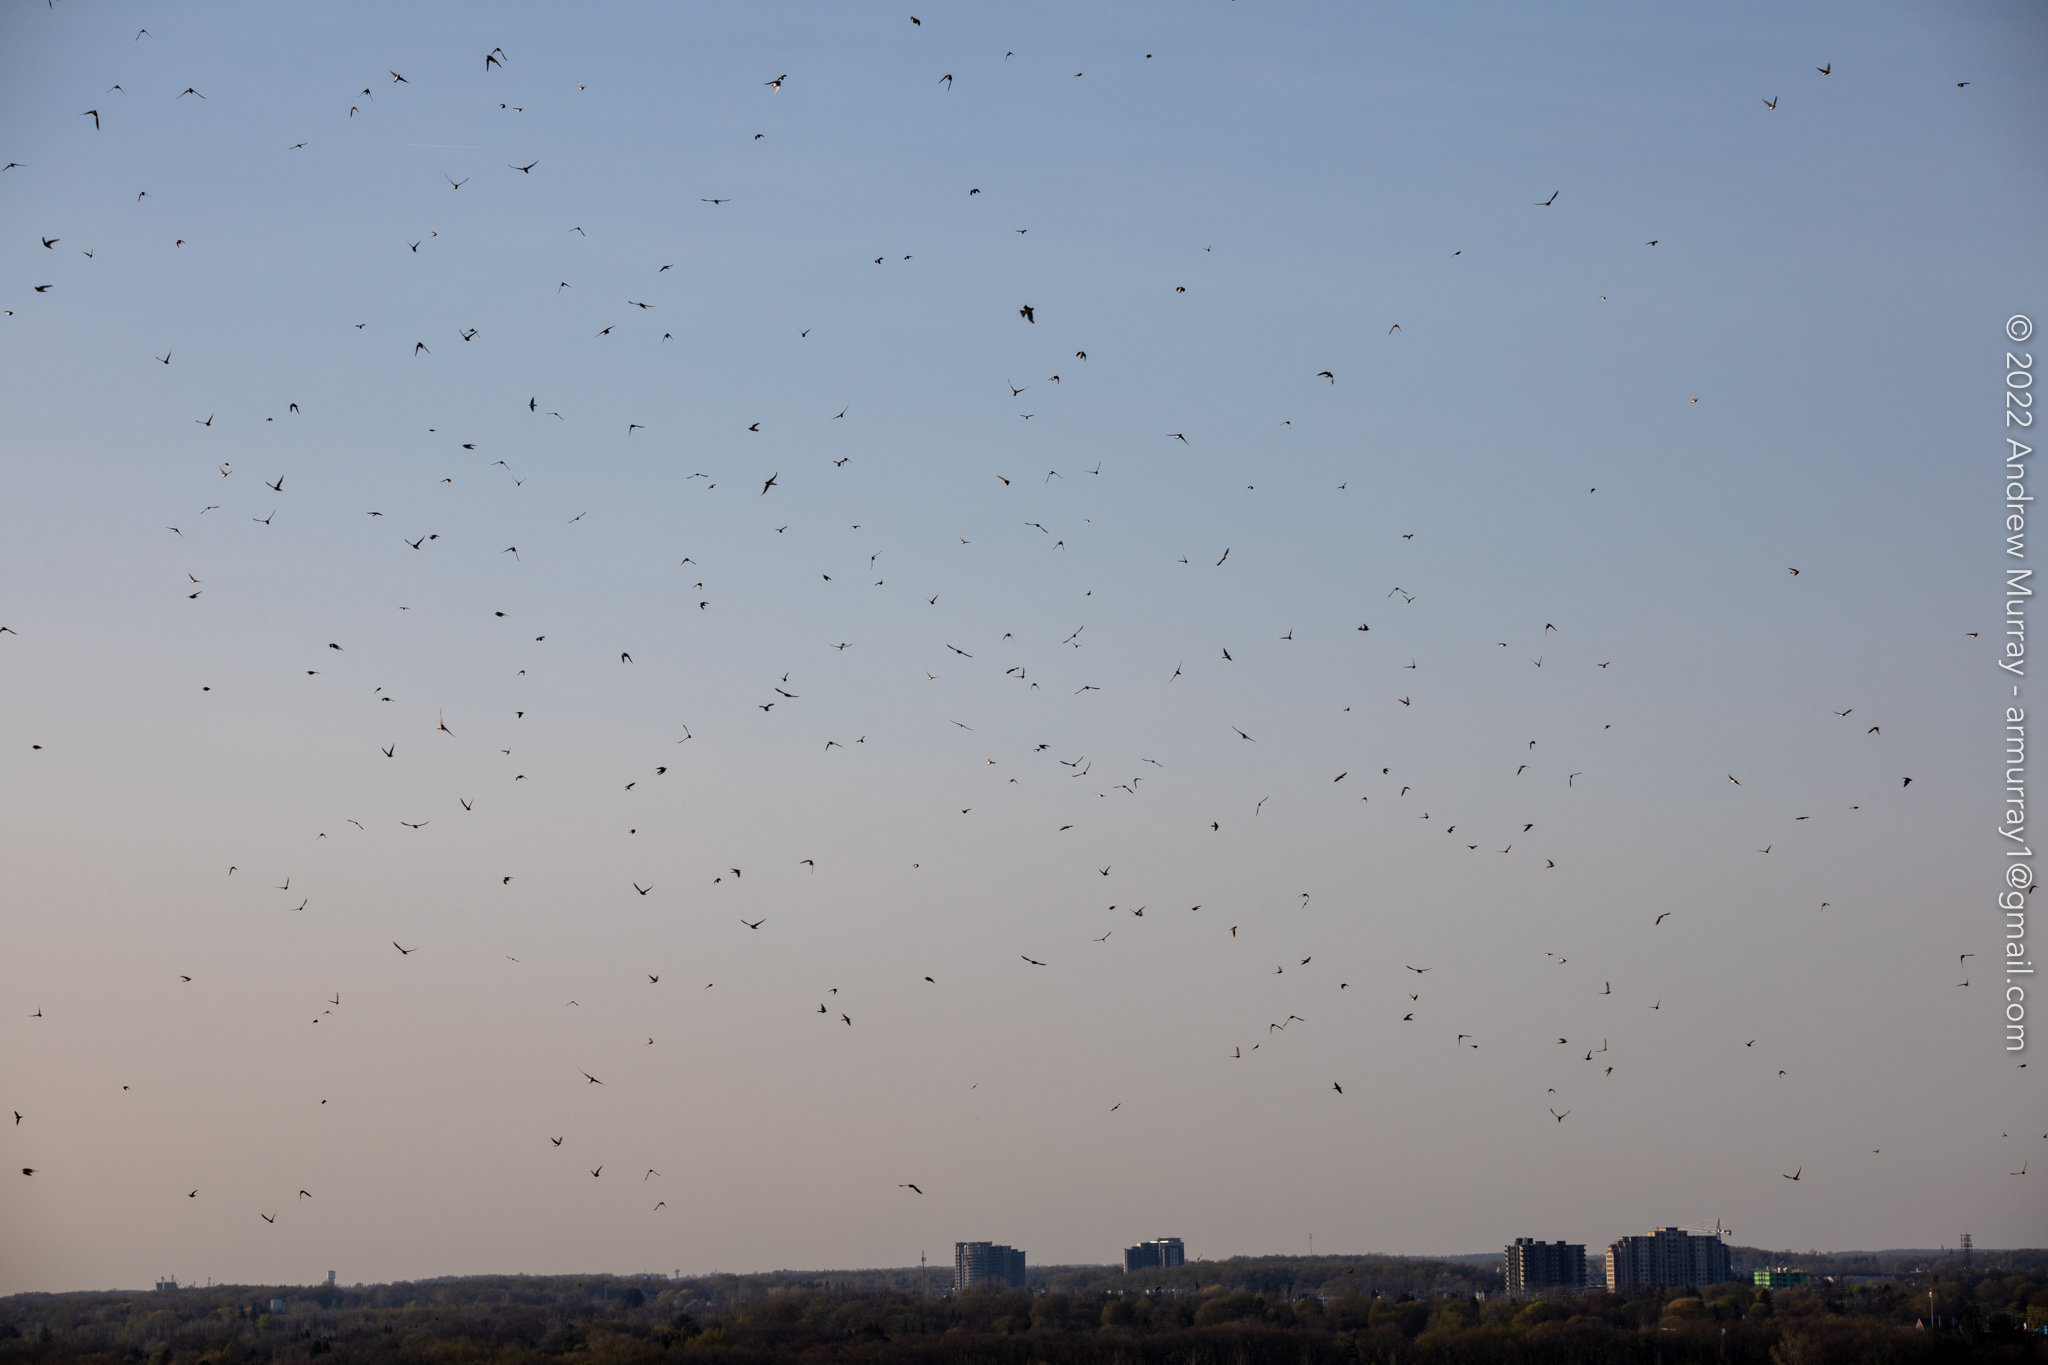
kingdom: Animalia
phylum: Chordata
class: Aves
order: Passeriformes
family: Hirundinidae
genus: Riparia
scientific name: Riparia riparia
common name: Sand martin
